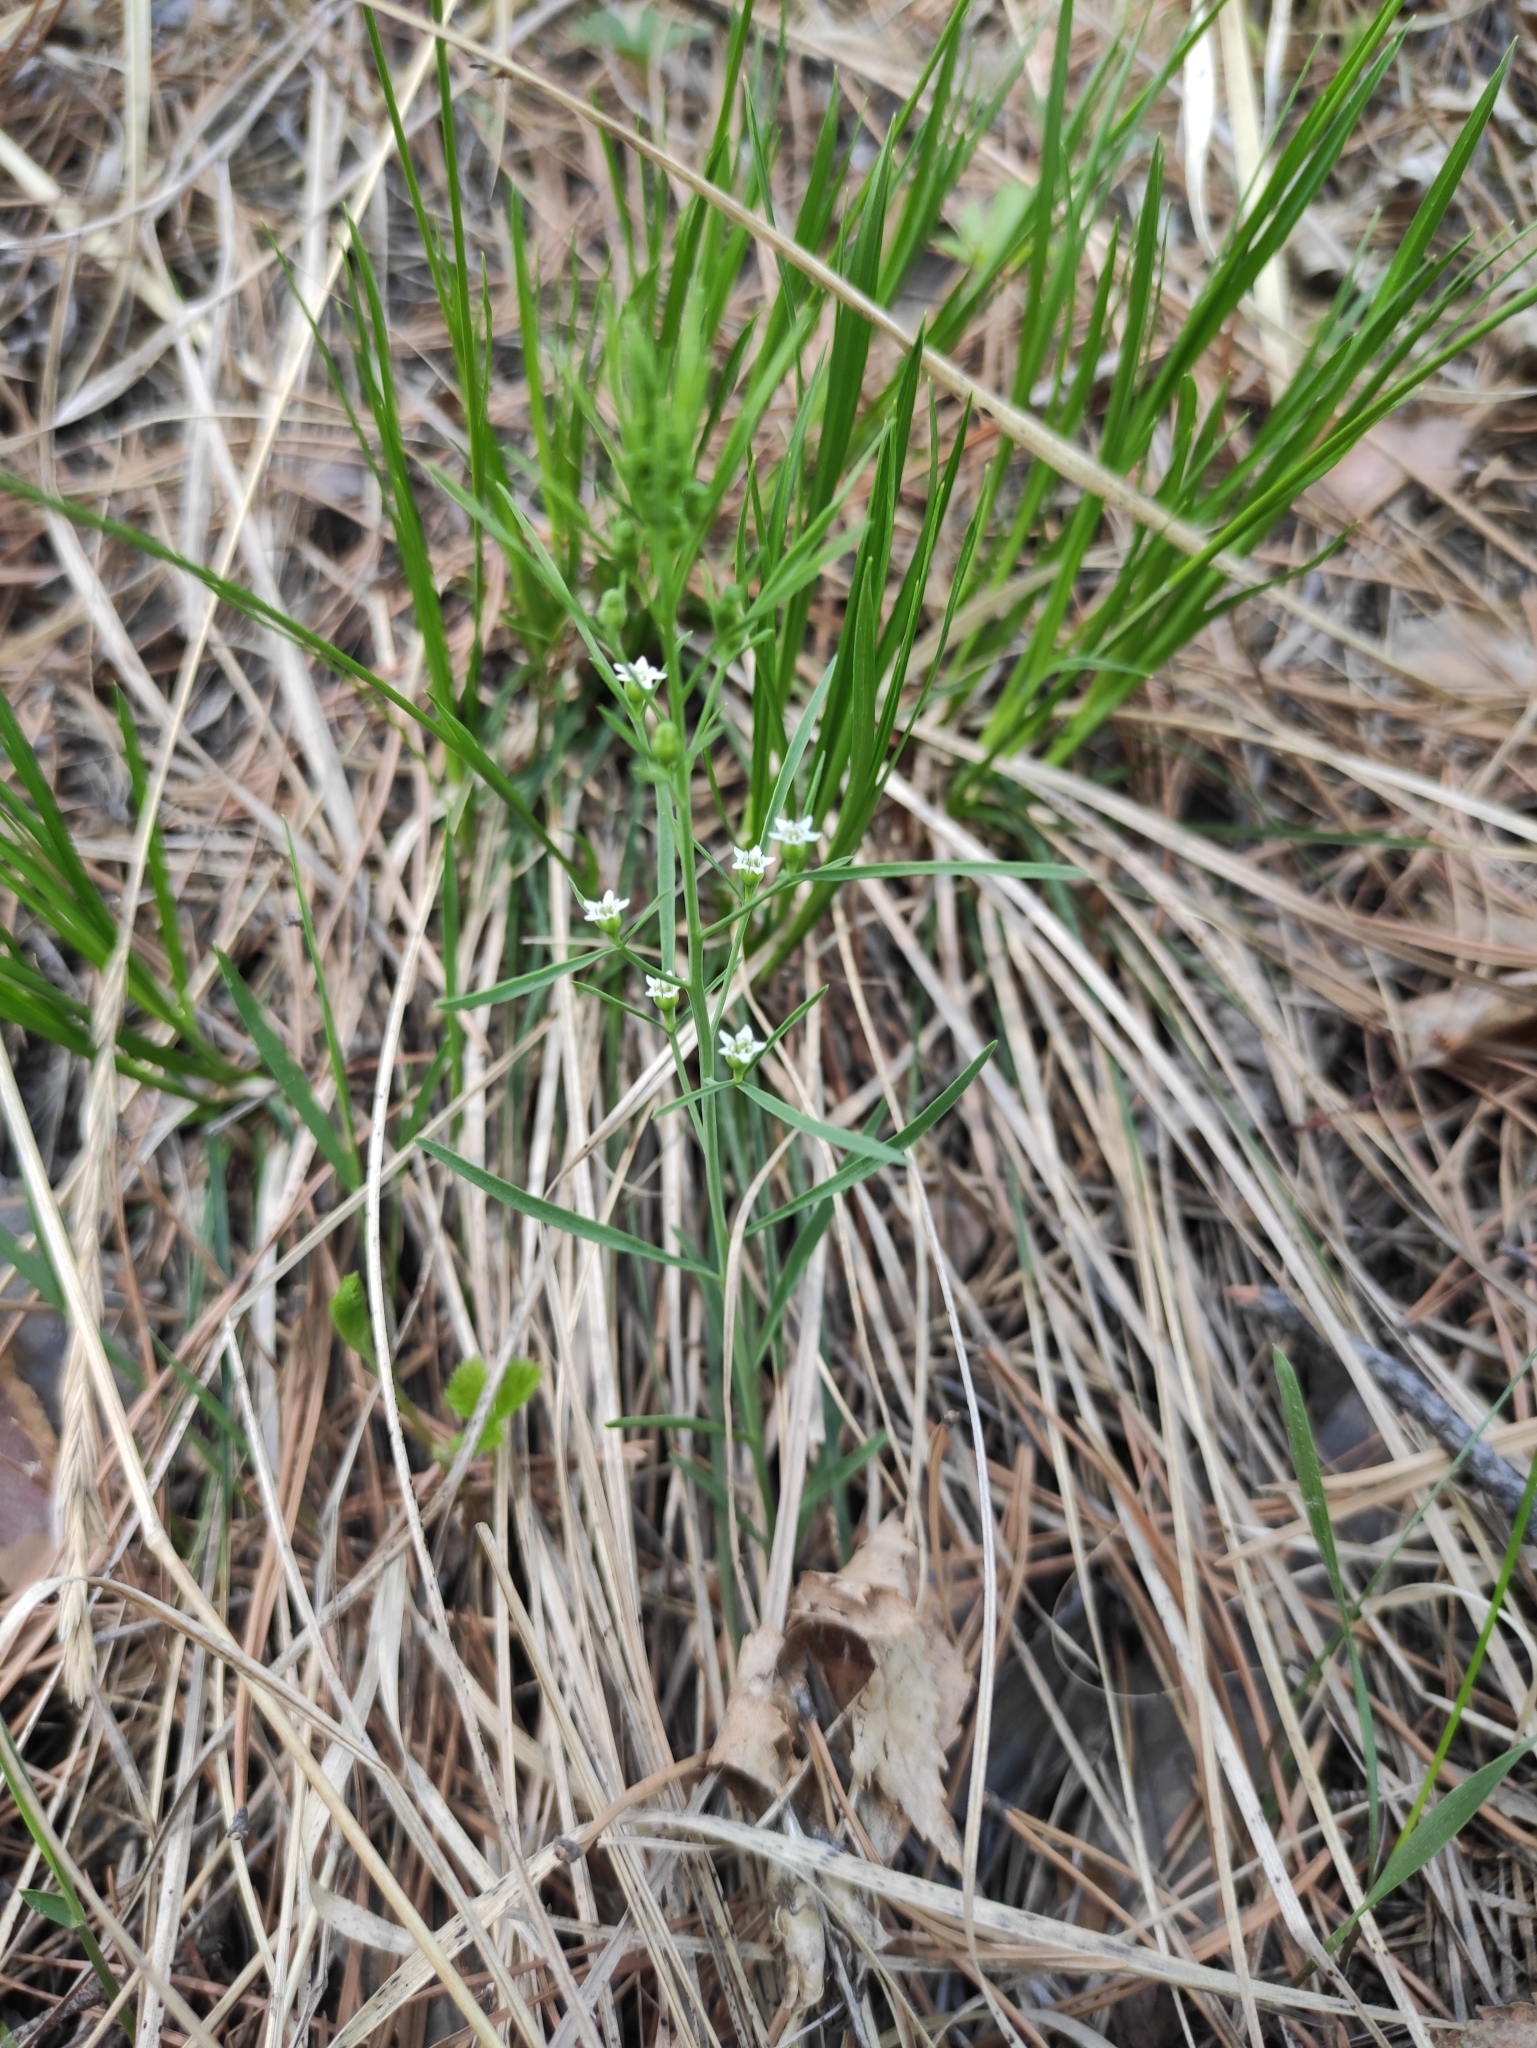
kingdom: Plantae
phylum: Tracheophyta
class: Magnoliopsida
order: Santalales
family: Thesiaceae
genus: Thesium
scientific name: Thesium repens
